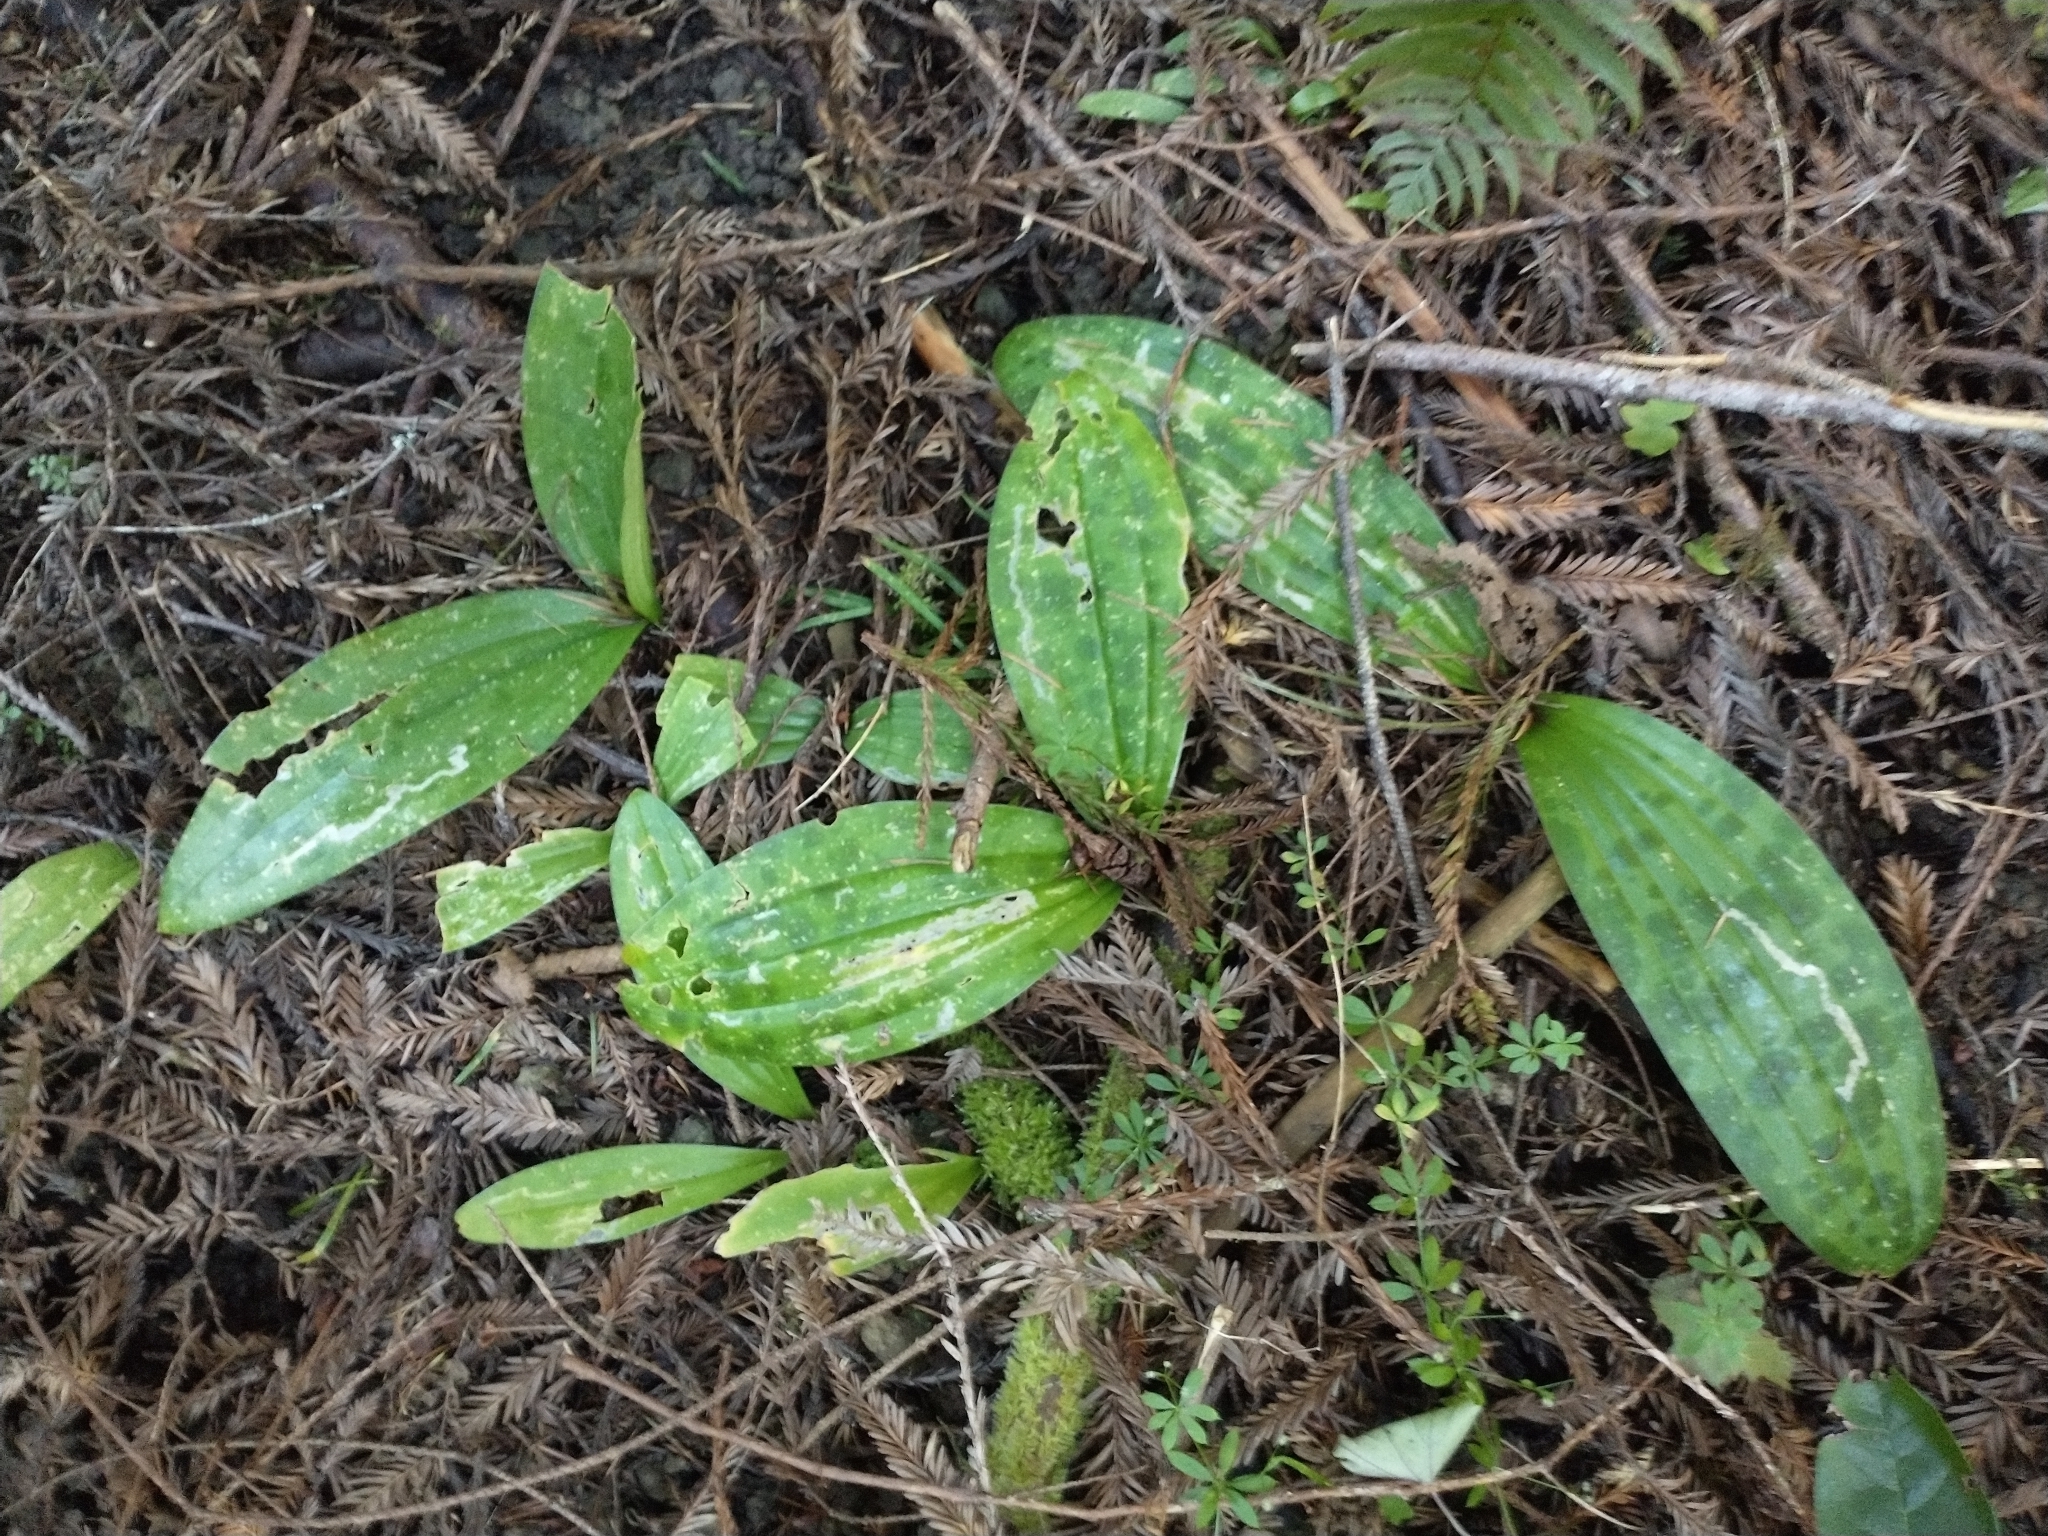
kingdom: Plantae
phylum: Tracheophyta
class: Liliopsida
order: Liliales
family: Liliaceae
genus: Scoliopus
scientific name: Scoliopus bigelovii
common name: Foetid adder's-tongue
